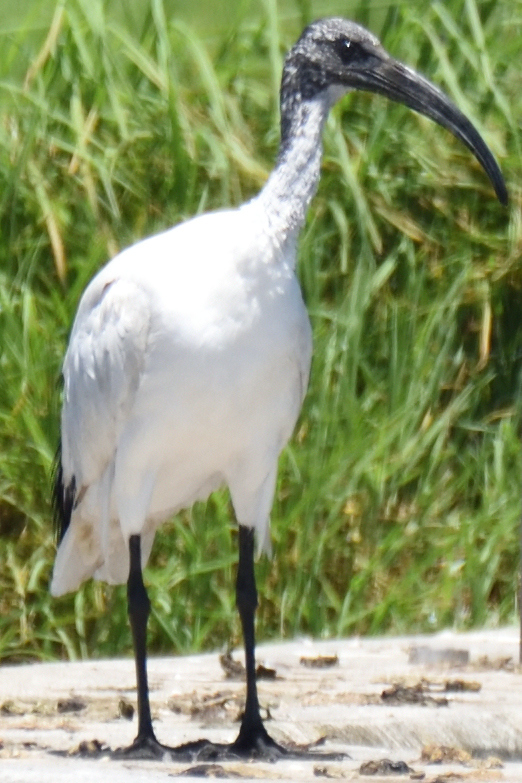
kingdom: Animalia
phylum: Chordata
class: Aves
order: Pelecaniformes
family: Threskiornithidae
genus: Threskiornis
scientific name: Threskiornis aethiopicus
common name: Sacred ibis
